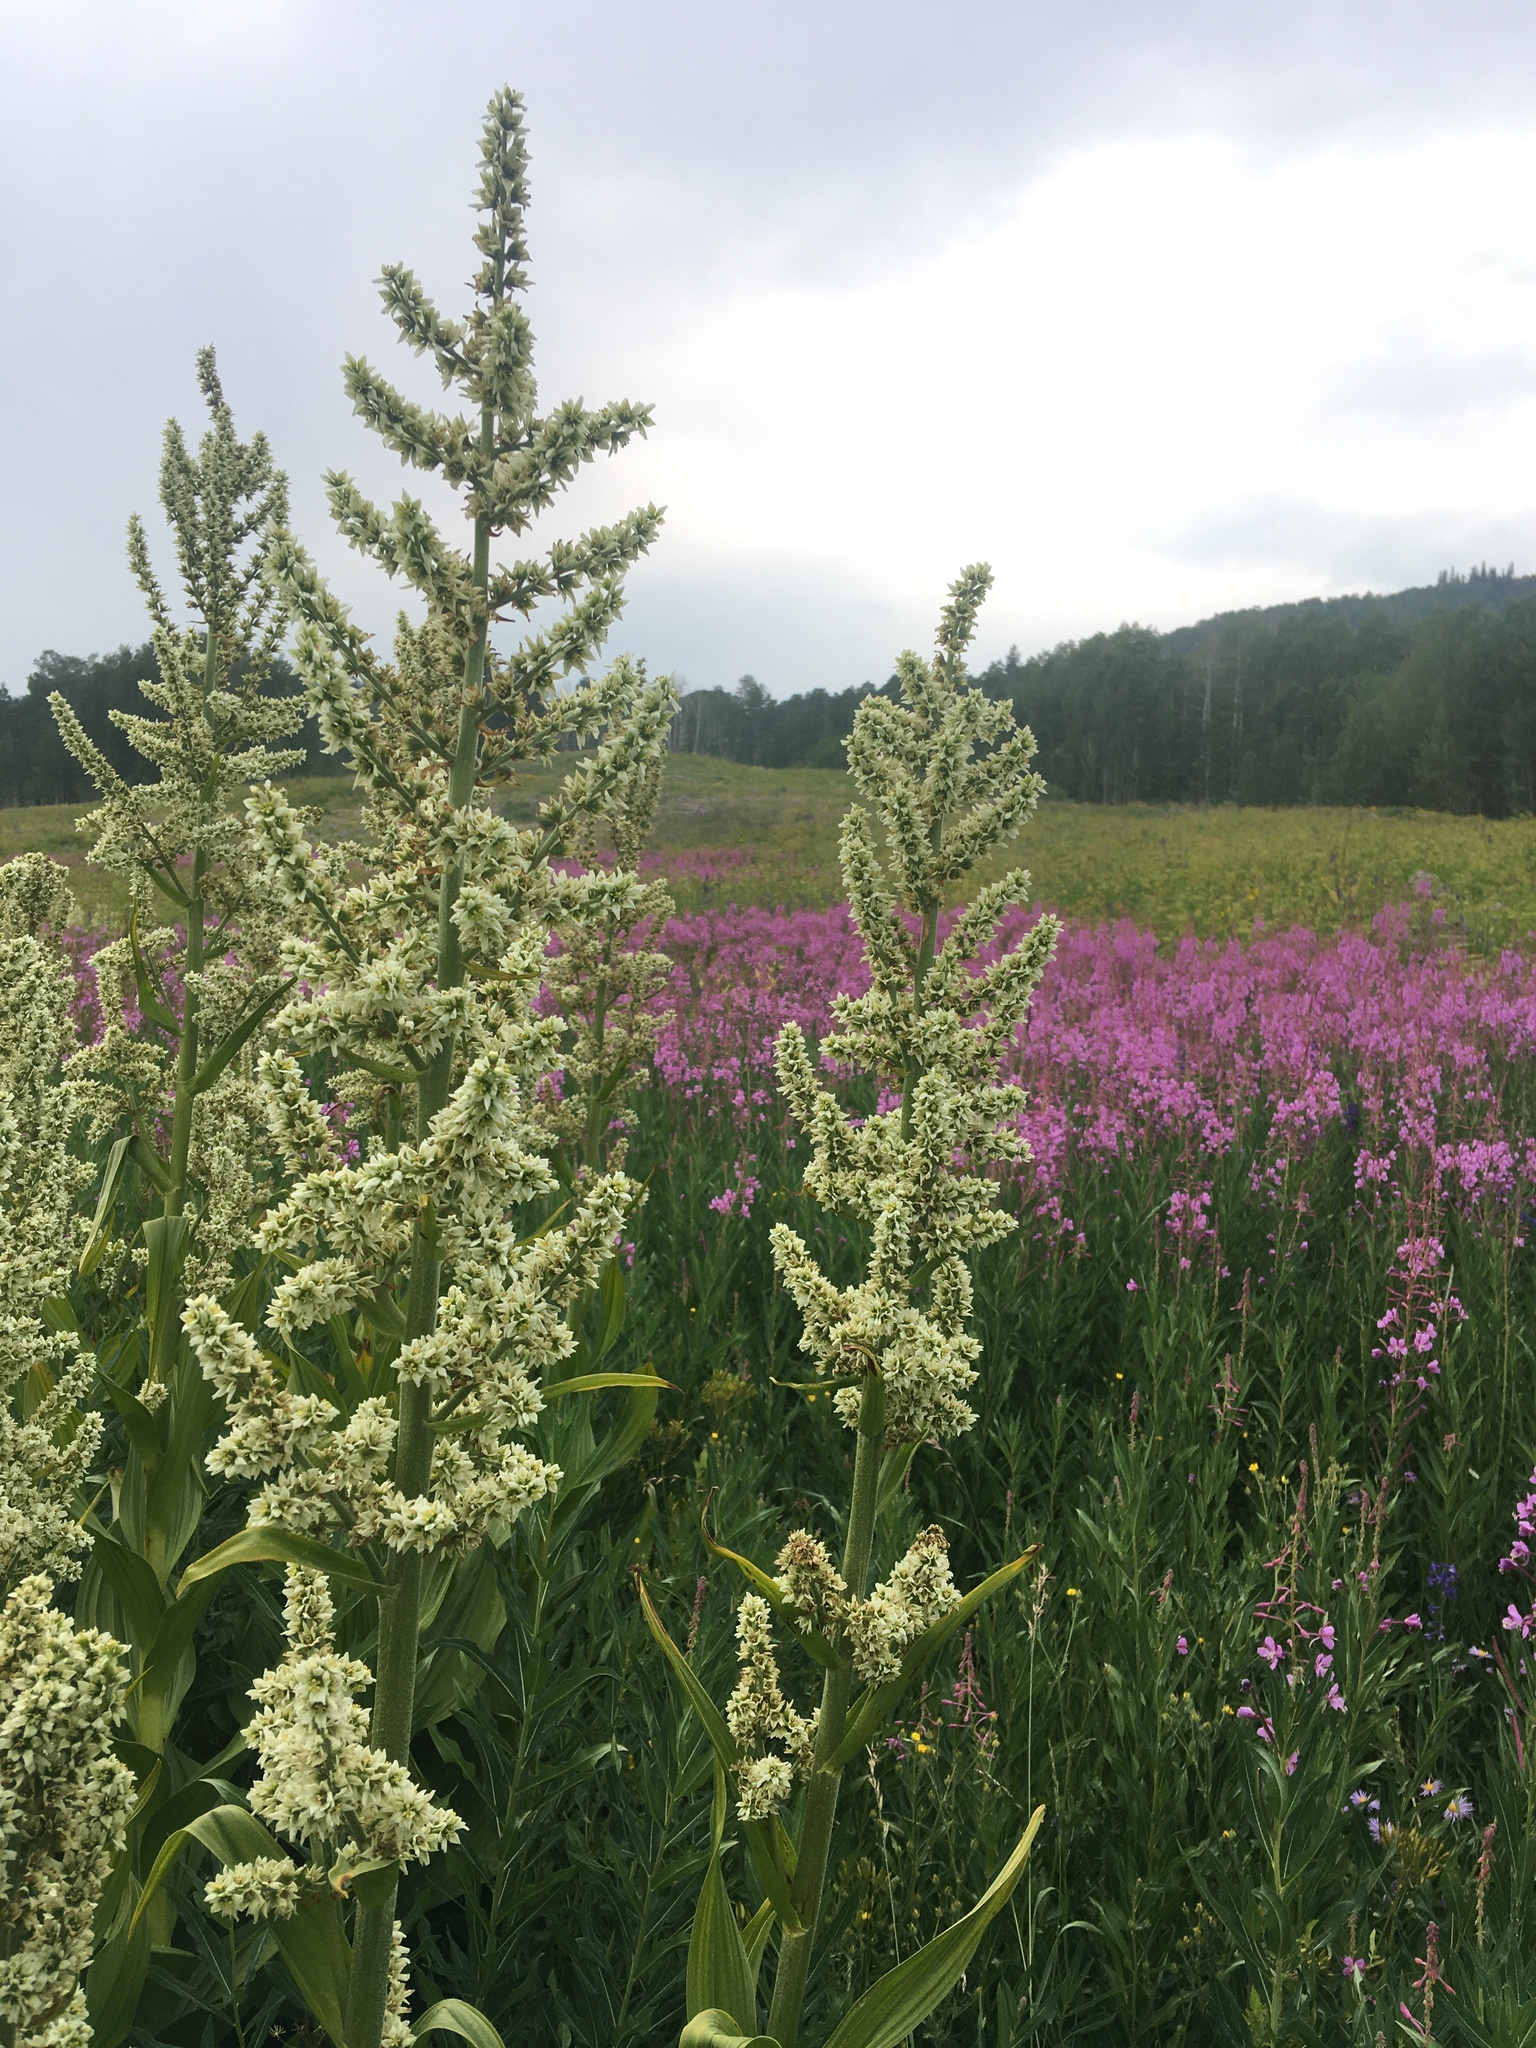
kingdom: Plantae
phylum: Tracheophyta
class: Liliopsida
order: Liliales
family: Melanthiaceae
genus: Veratrum
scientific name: Veratrum californicum
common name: California veratrum
